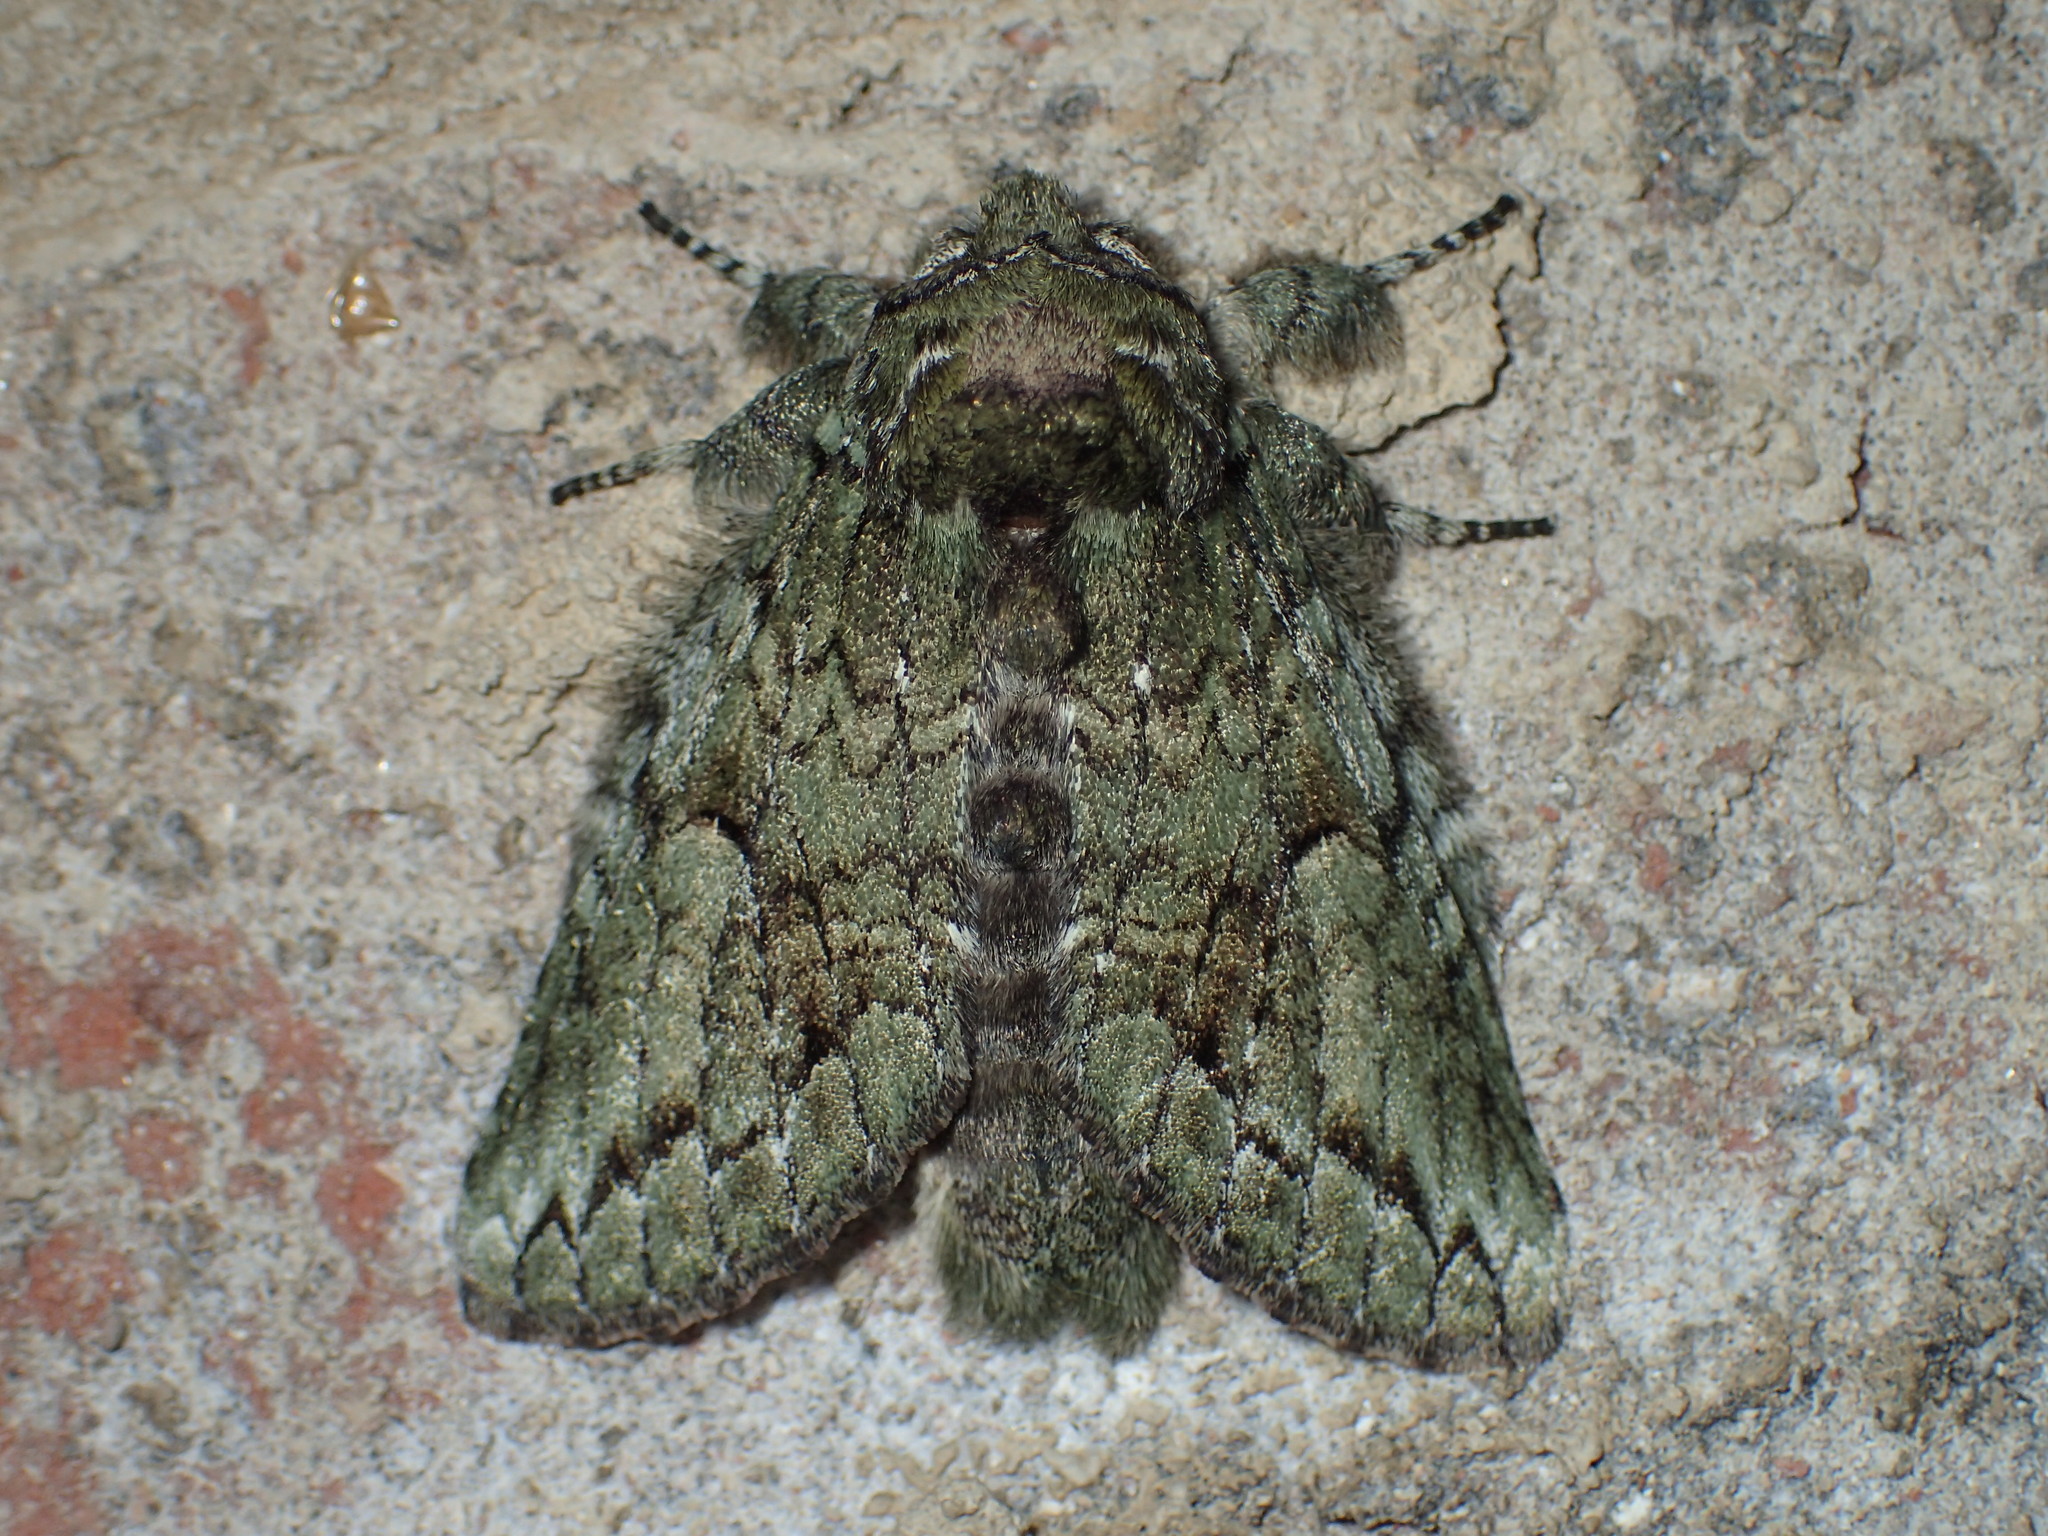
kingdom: Animalia
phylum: Arthropoda
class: Insecta
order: Lepidoptera
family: Notodontidae
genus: Heterocampa
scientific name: Heterocampa
